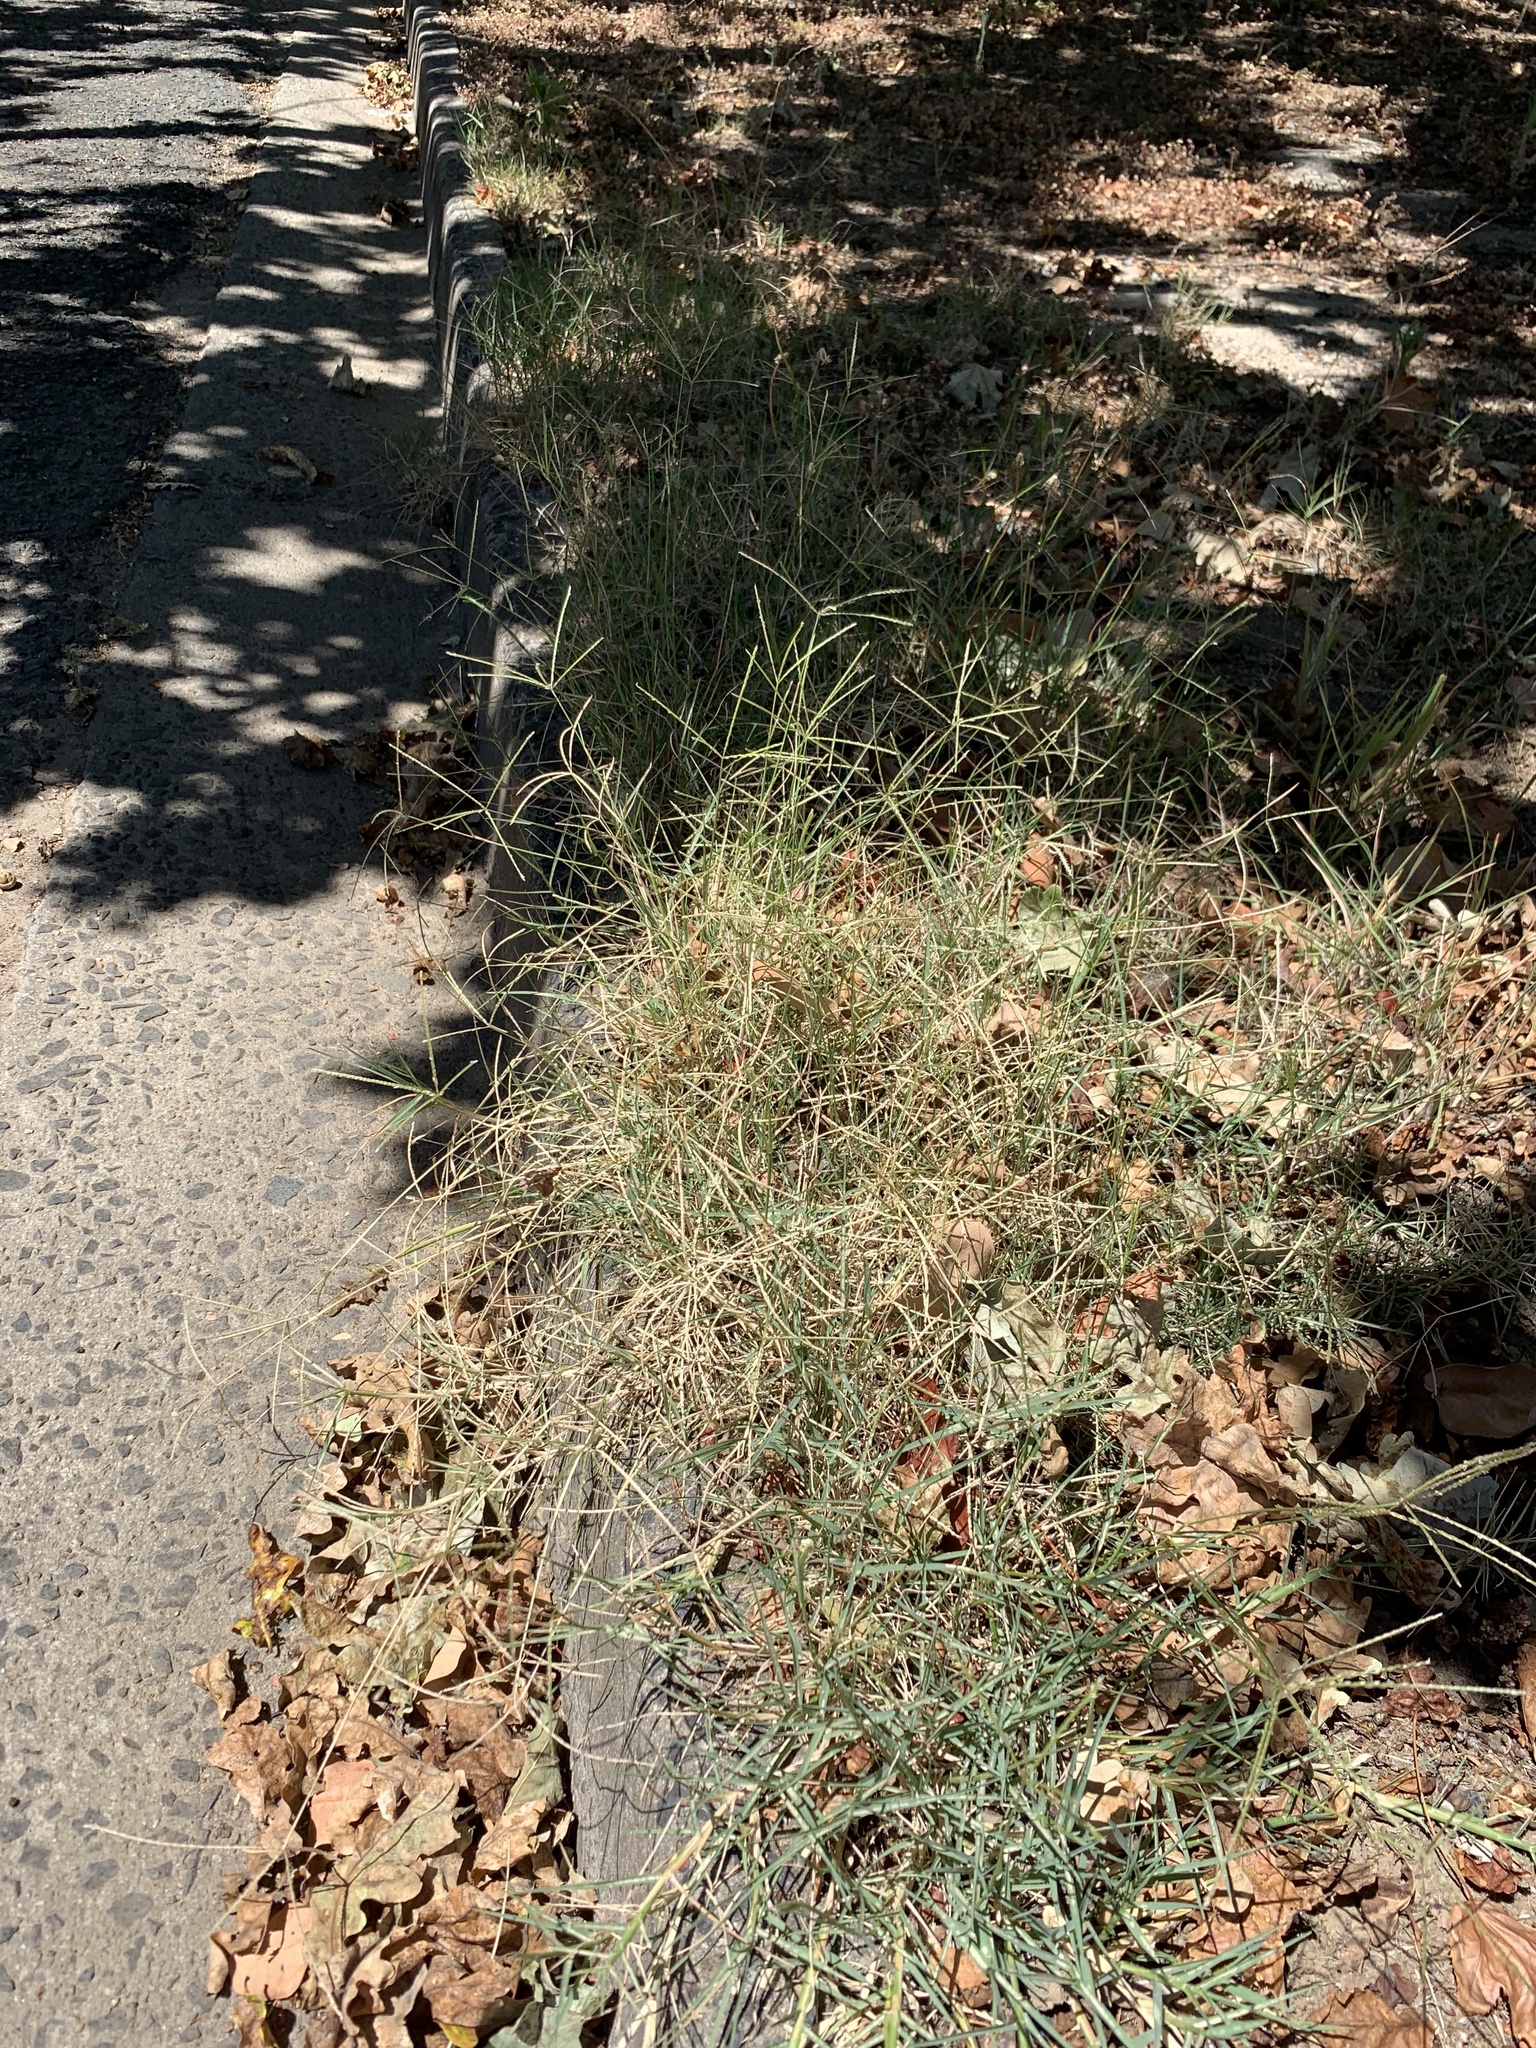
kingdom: Plantae
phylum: Tracheophyta
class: Liliopsida
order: Poales
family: Poaceae
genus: Cynodon
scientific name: Cynodon dactylon
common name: Bermuda grass
